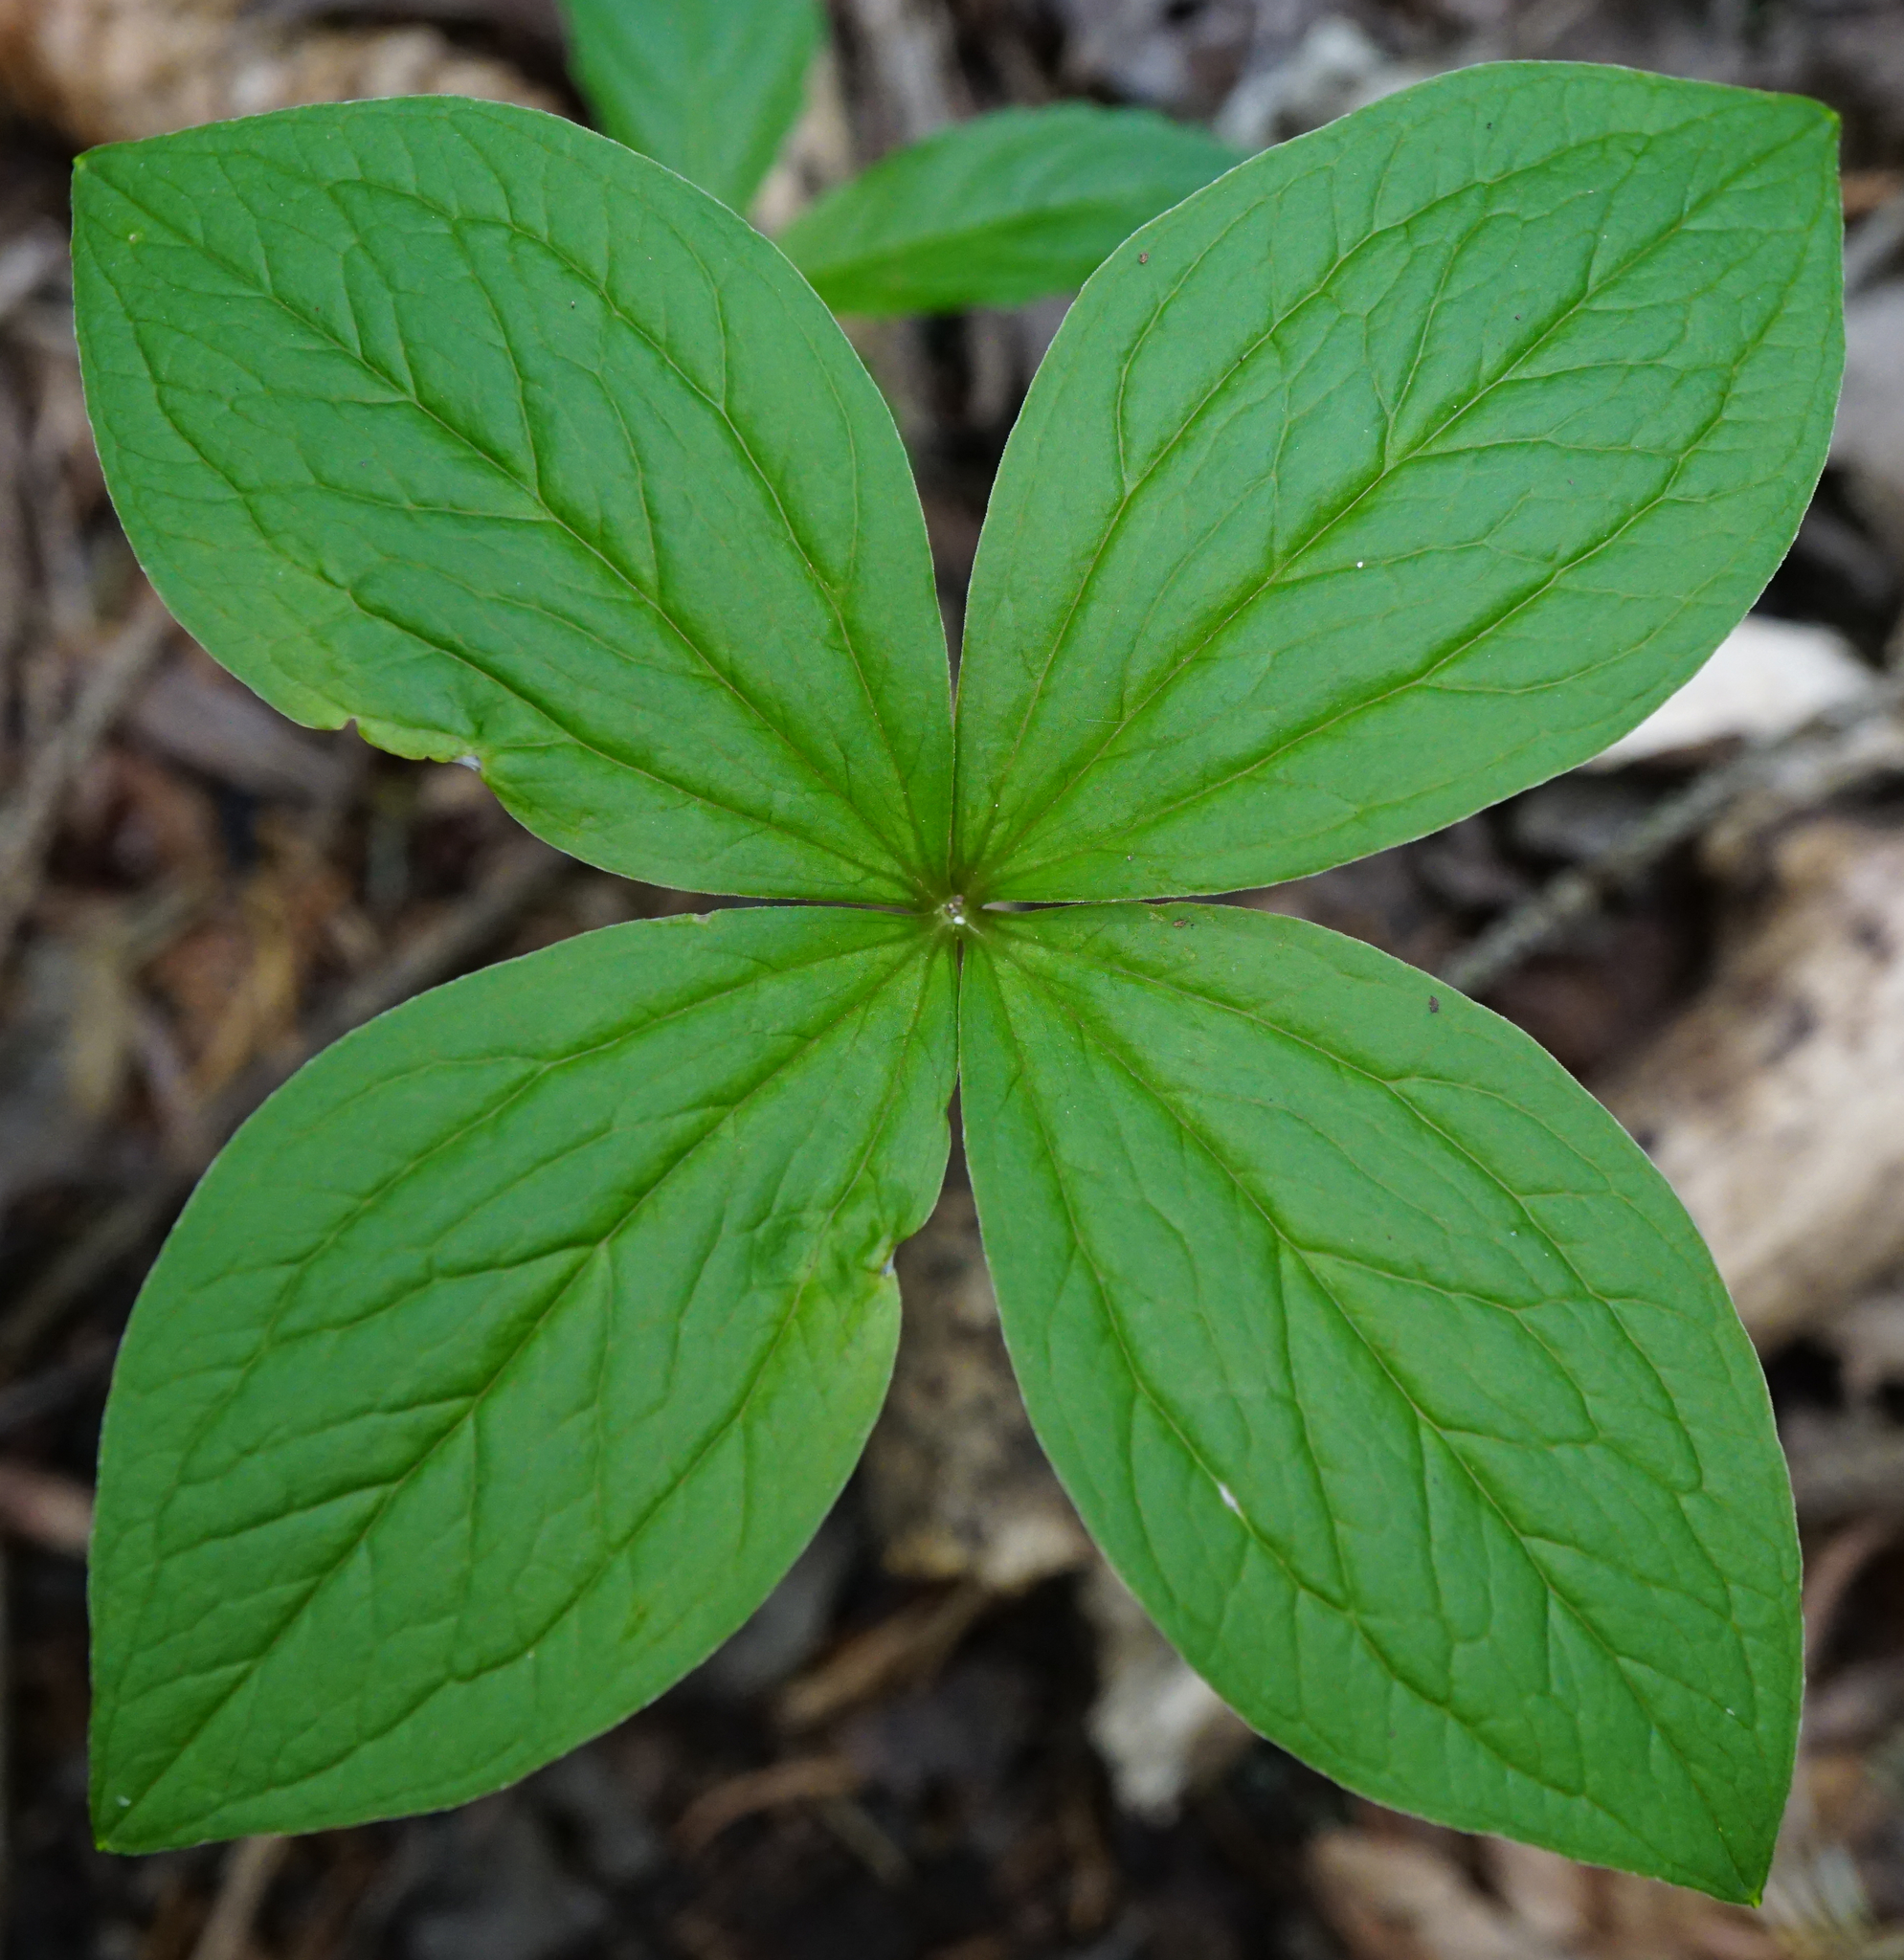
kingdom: Plantae
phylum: Tracheophyta
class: Liliopsida
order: Liliales
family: Melanthiaceae
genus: Paris
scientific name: Paris quadrifolia
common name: Herb-paris
